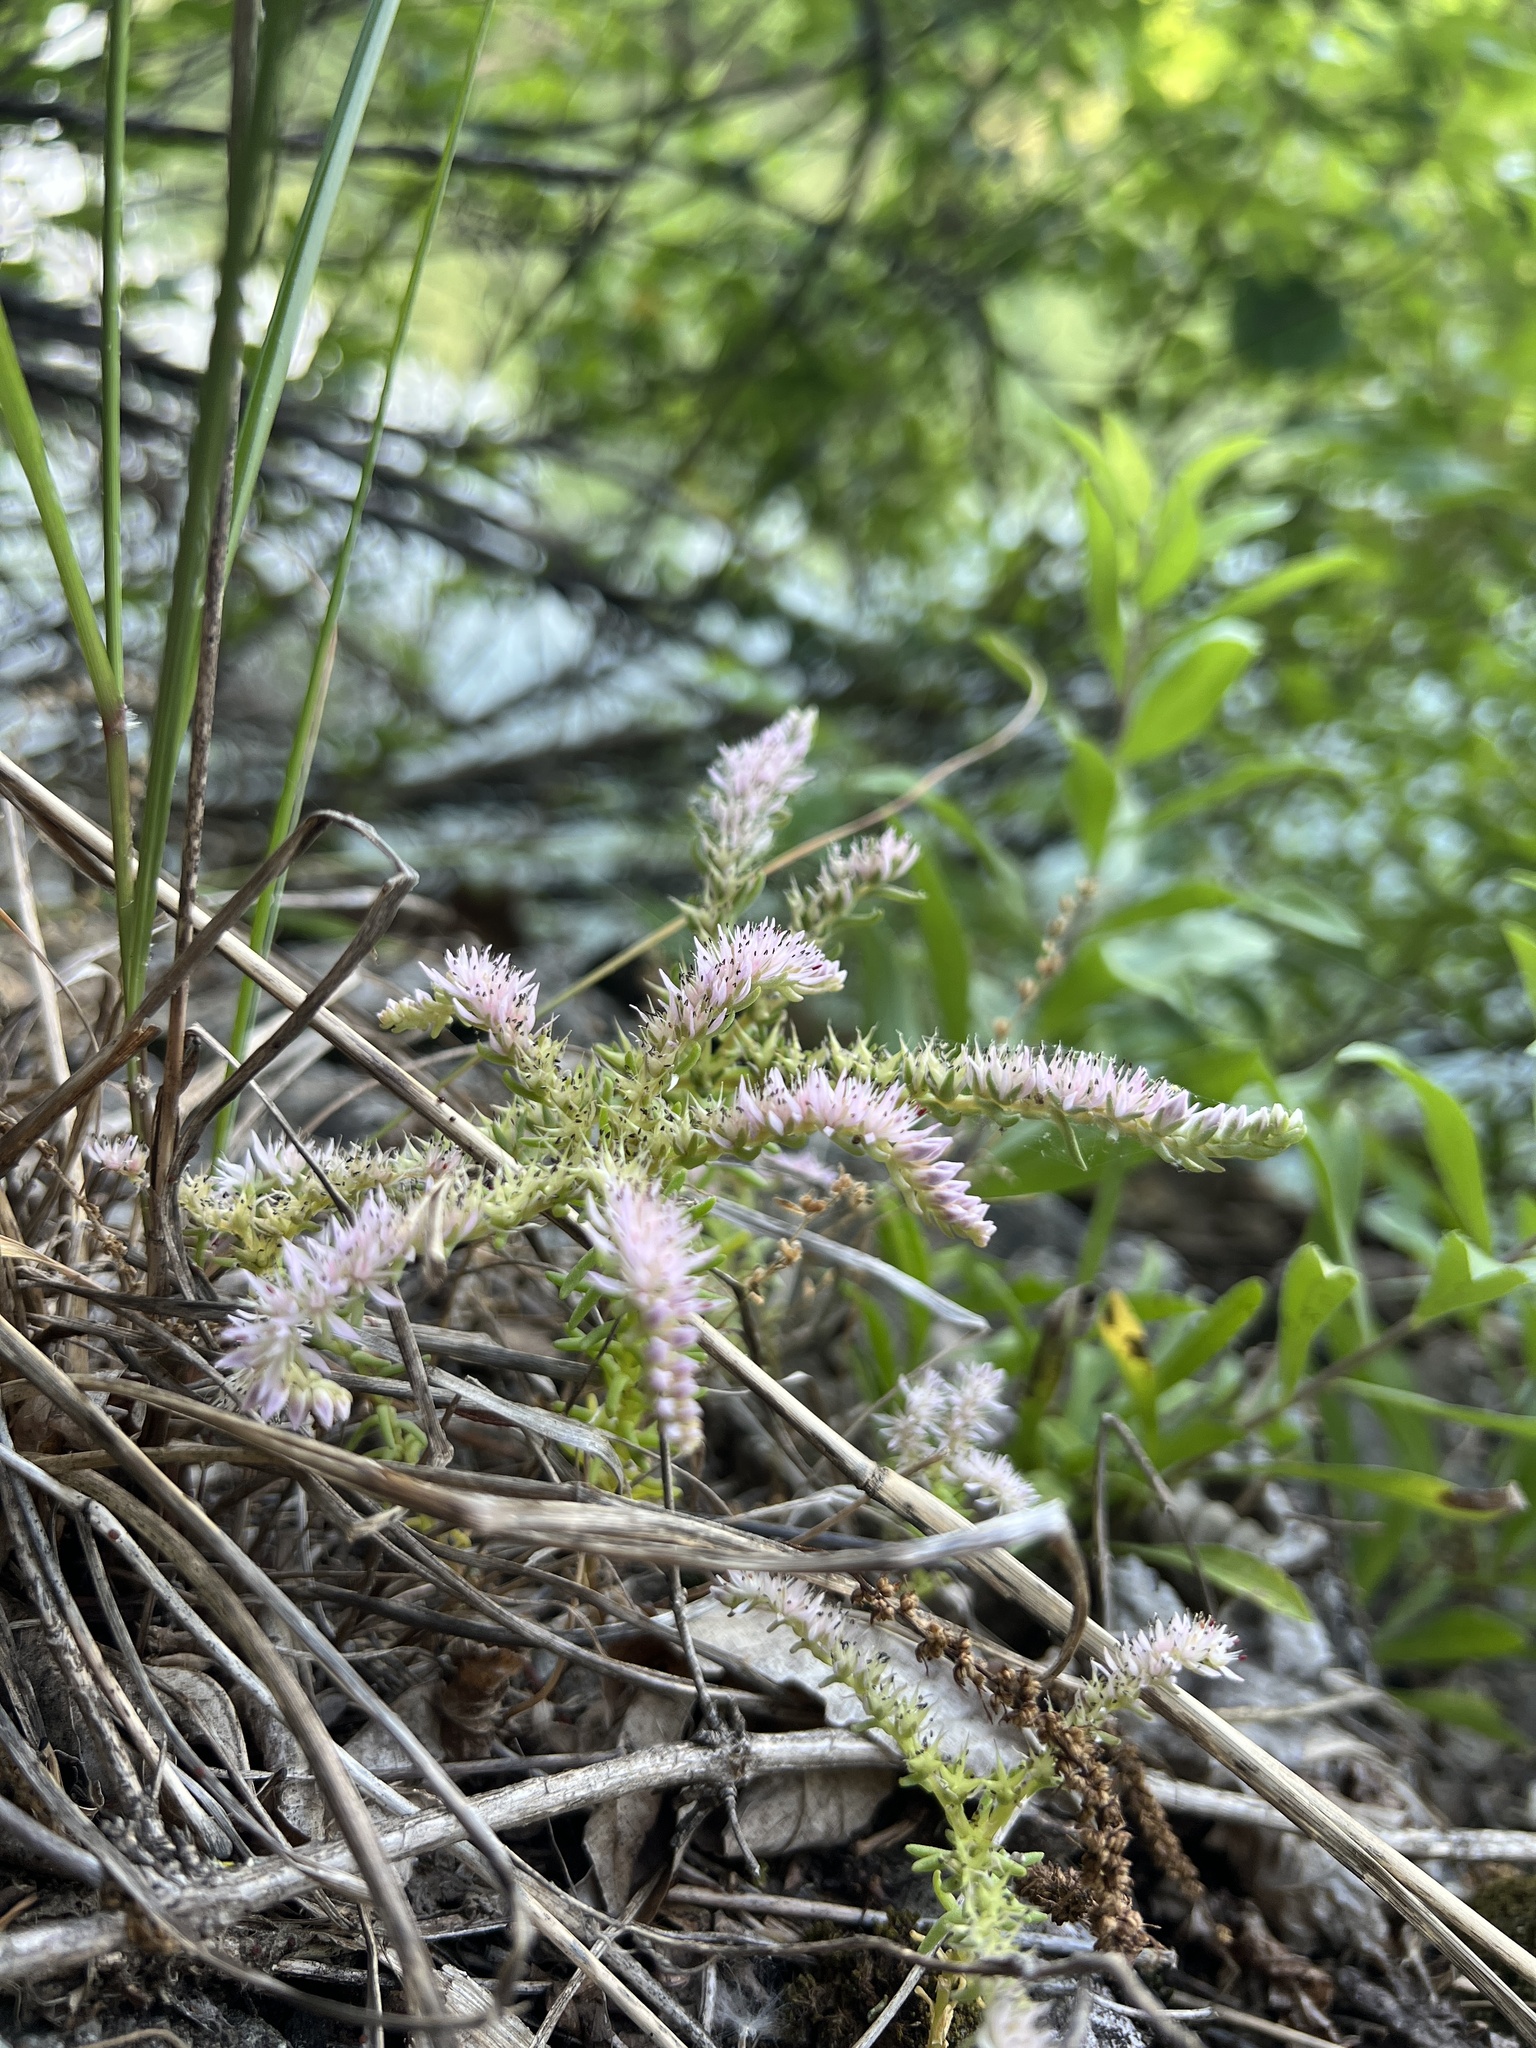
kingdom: Plantae
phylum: Tracheophyta
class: Magnoliopsida
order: Saxifragales
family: Crassulaceae
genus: Sedum
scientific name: Sedum pulchellum
